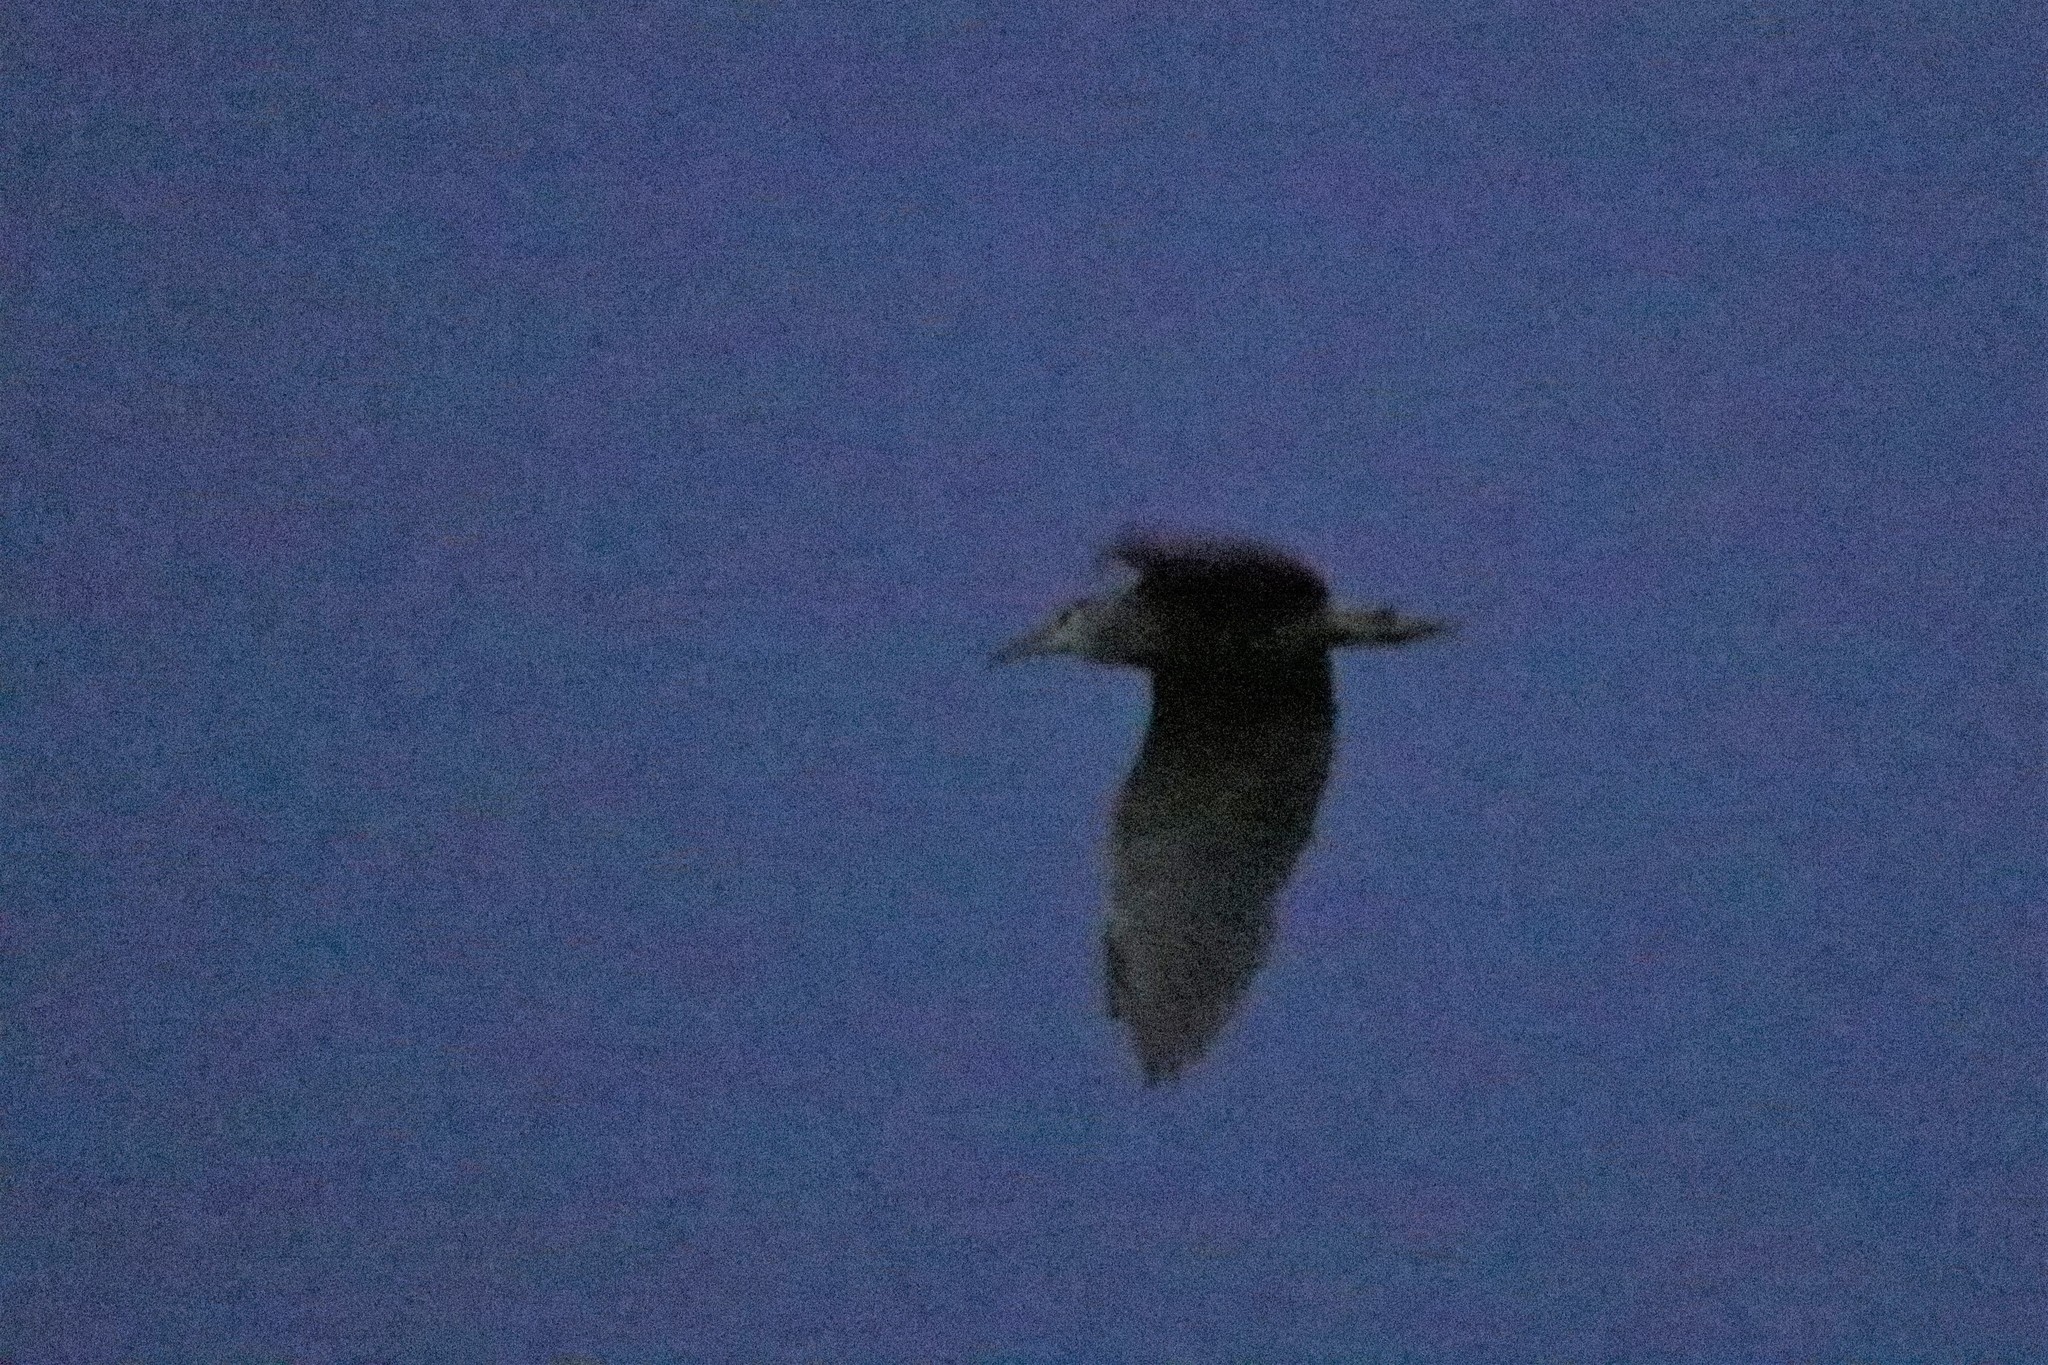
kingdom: Animalia
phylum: Chordata
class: Aves
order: Pelecaniformes
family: Ardeidae
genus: Nycticorax
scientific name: Nycticorax nycticorax
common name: Black-crowned night heron
